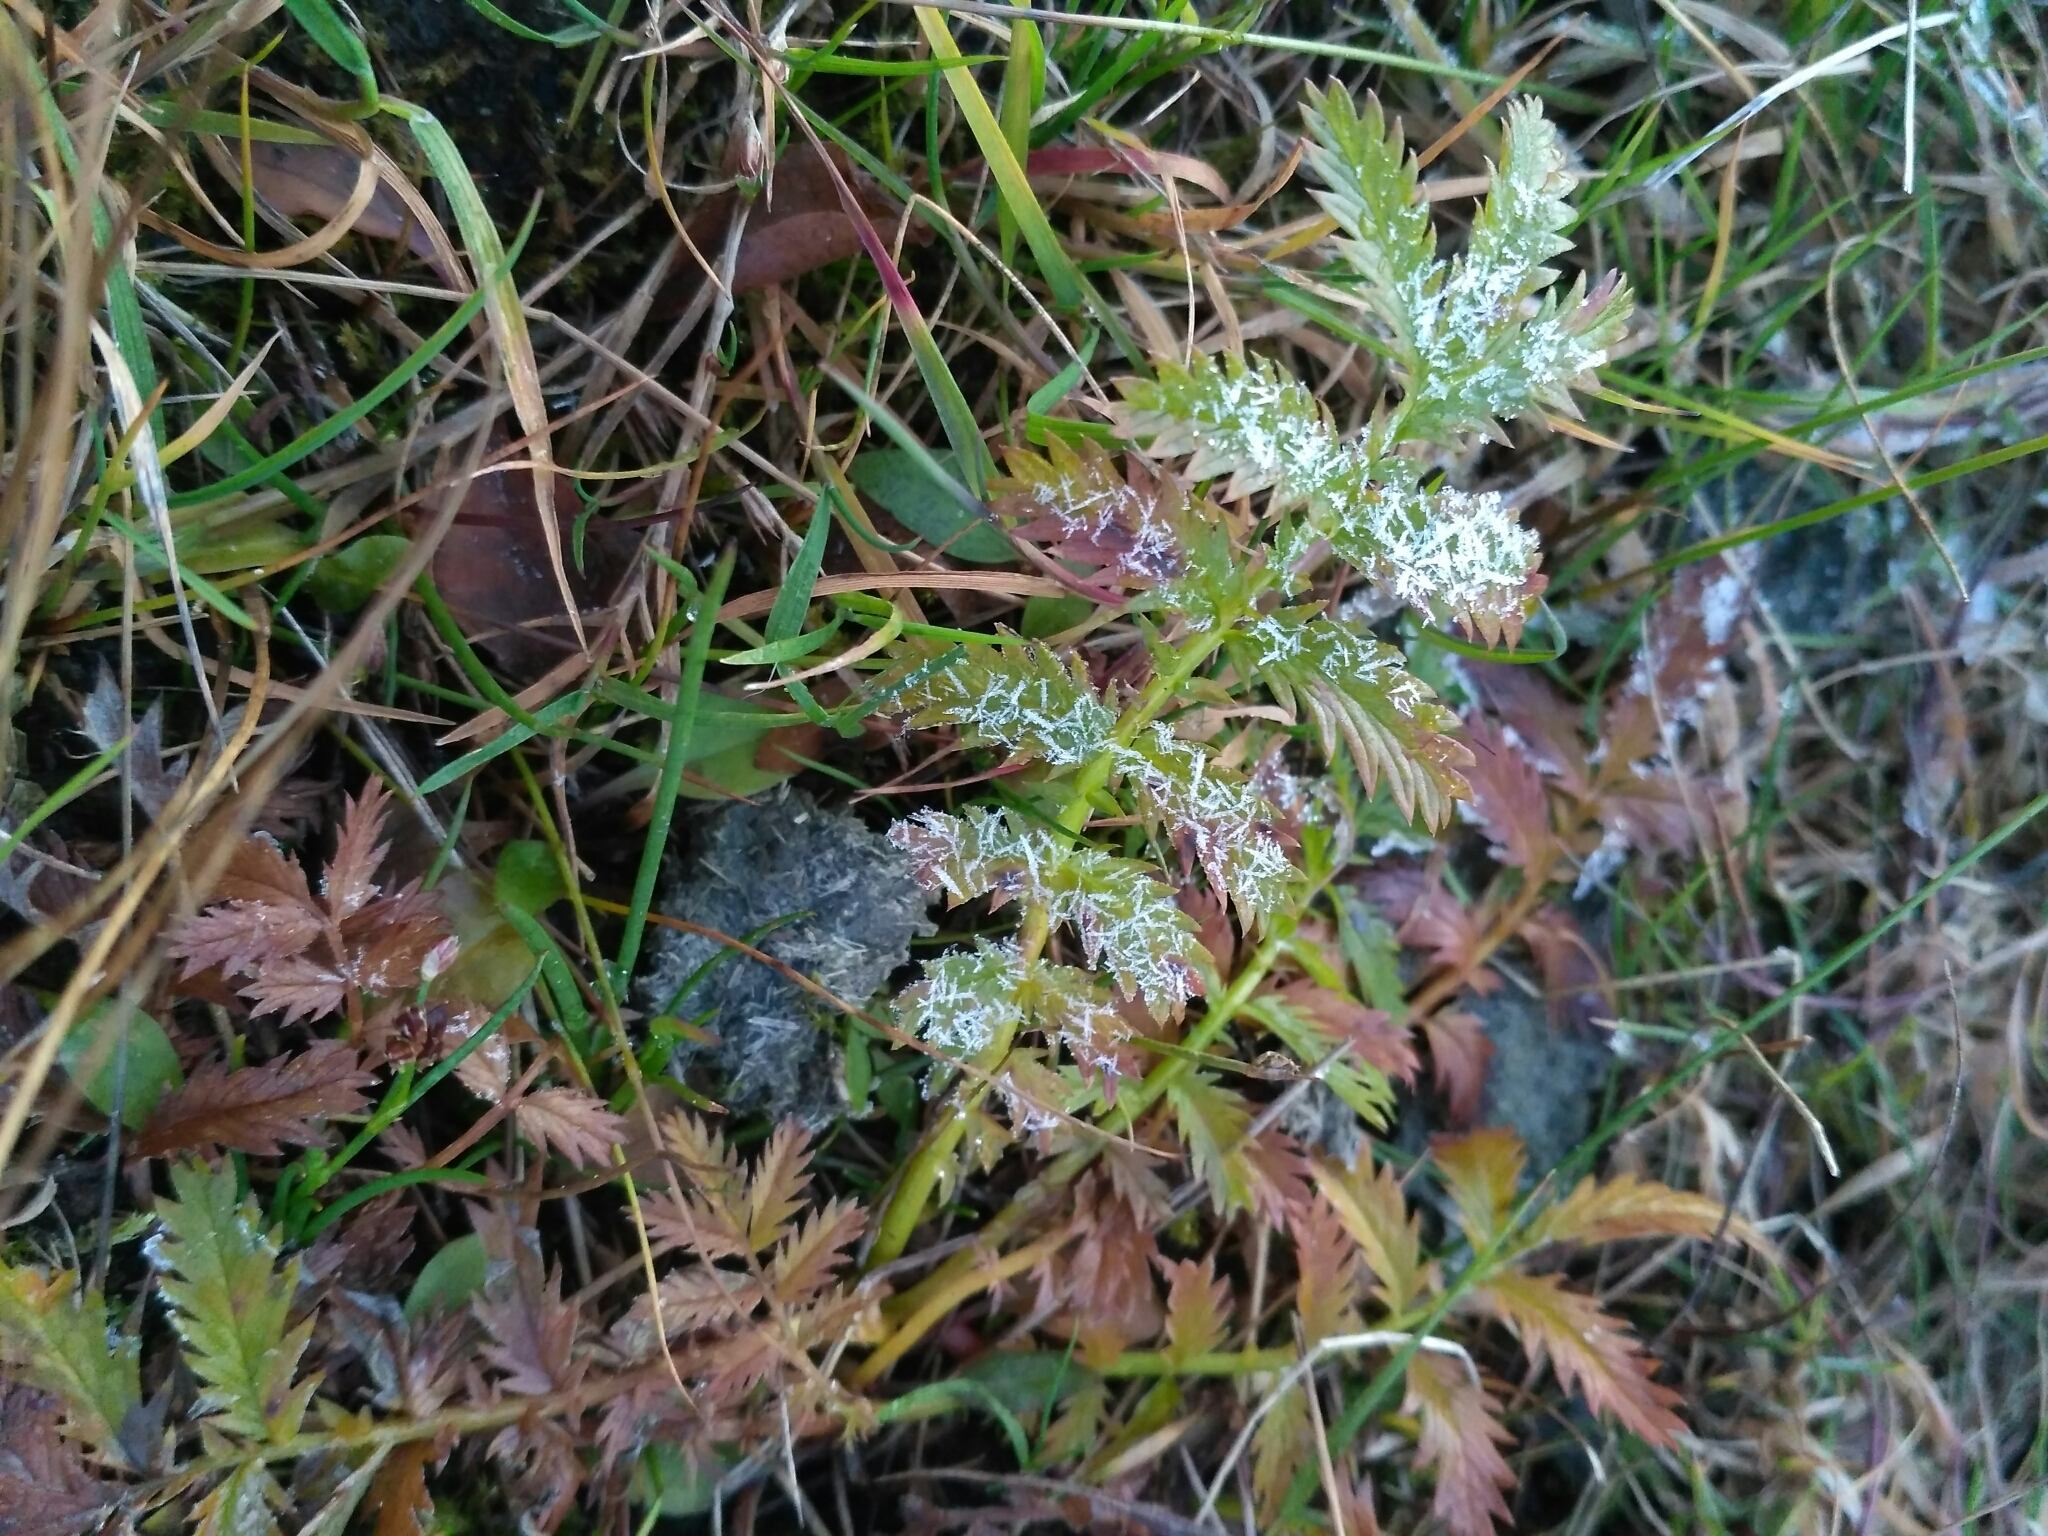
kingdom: Plantae
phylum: Tracheophyta
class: Magnoliopsida
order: Rosales
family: Rosaceae
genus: Argentina
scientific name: Argentina anserina
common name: Common silverweed
